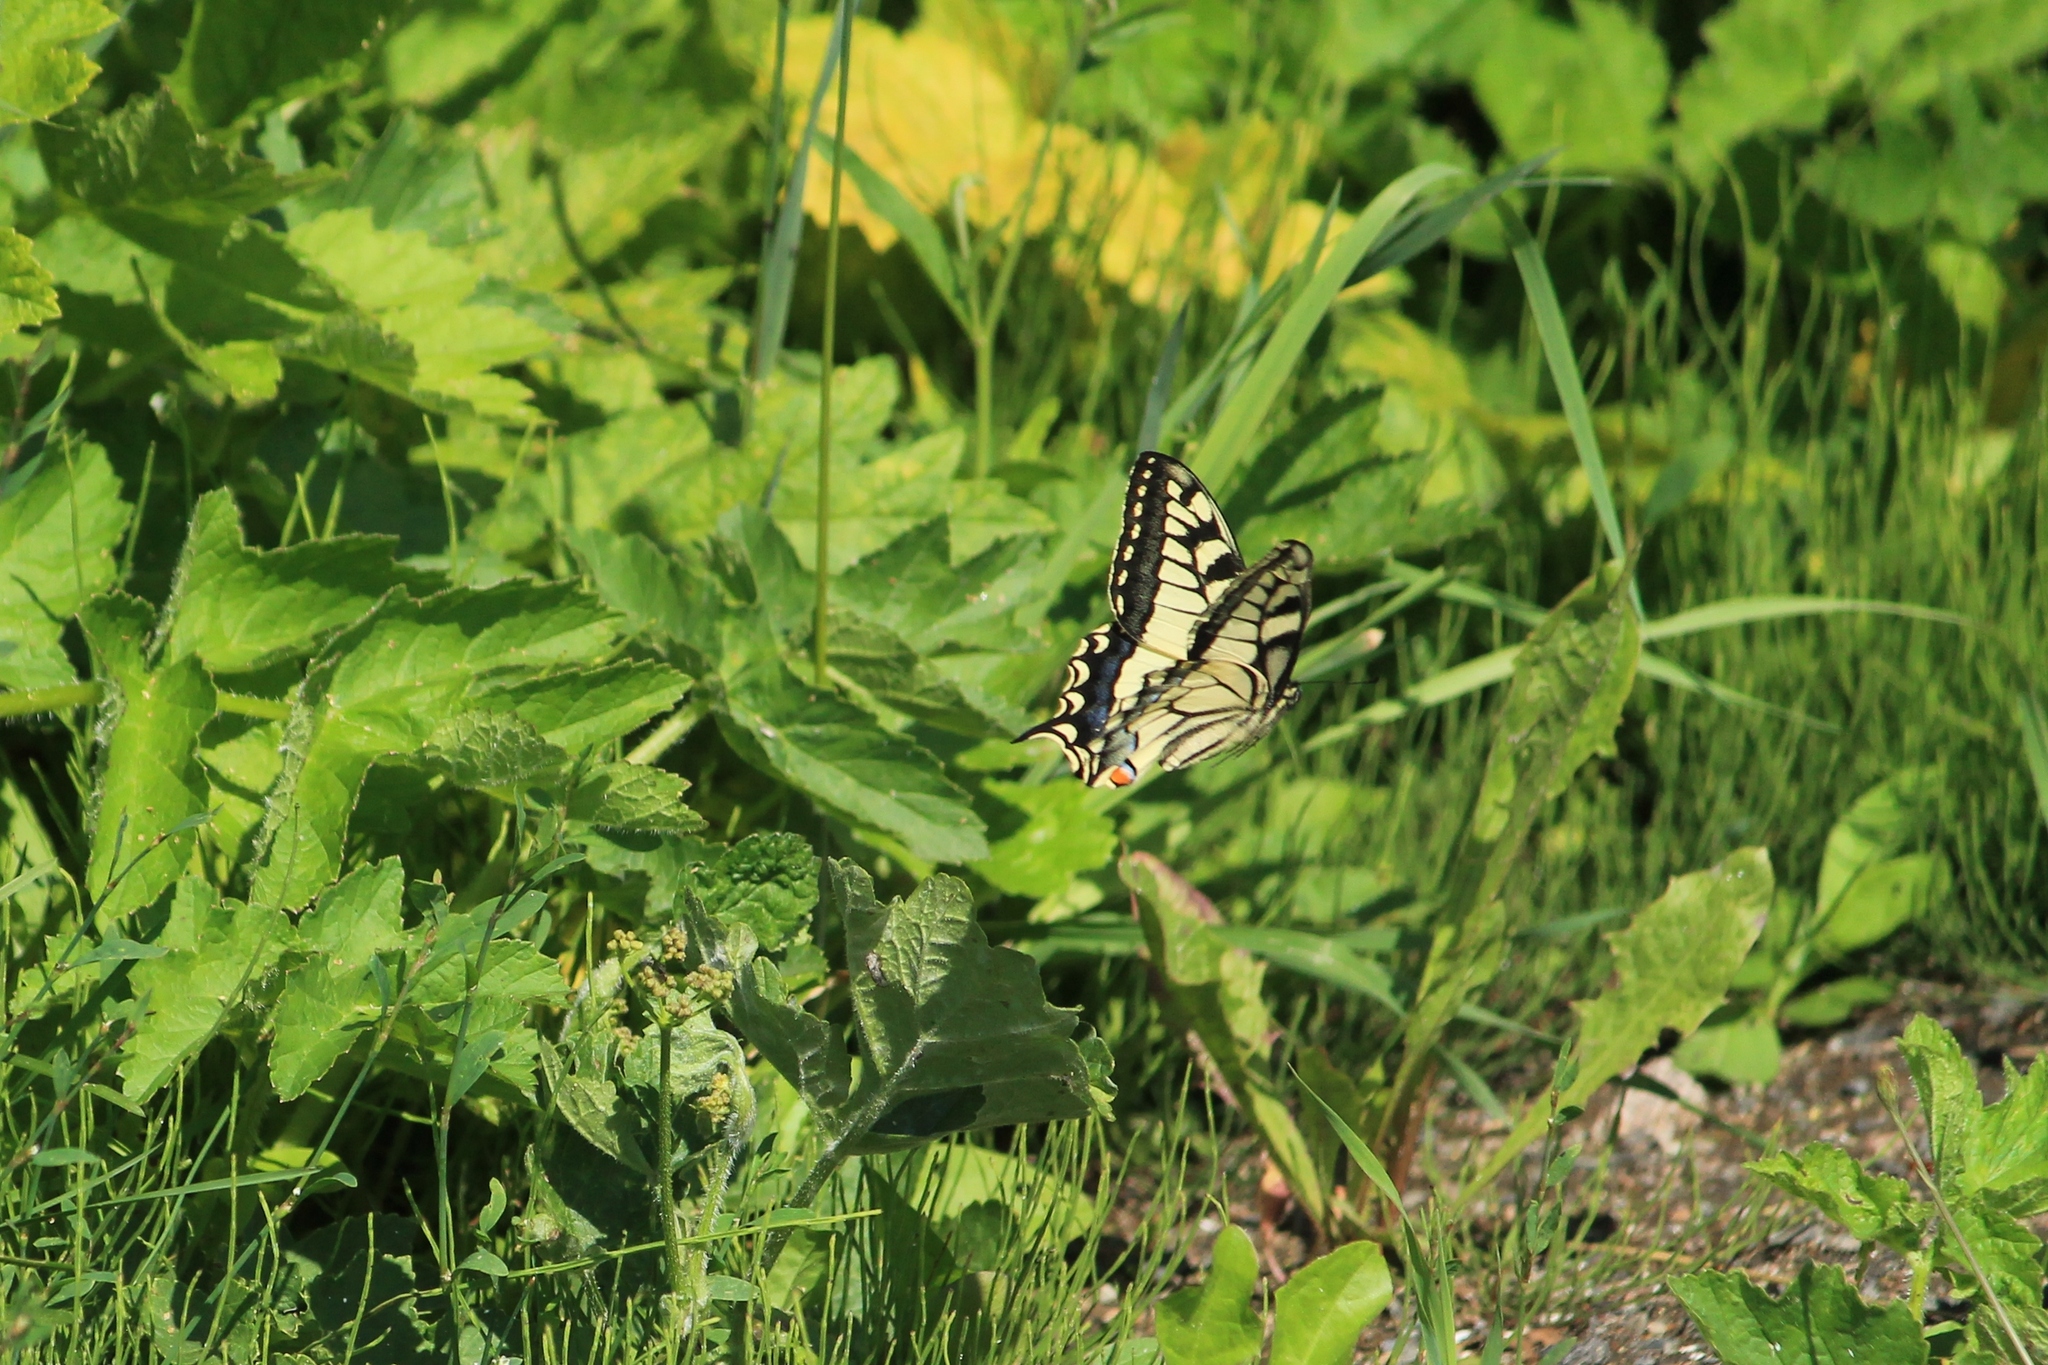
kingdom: Animalia
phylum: Arthropoda
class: Insecta
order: Lepidoptera
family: Papilionidae
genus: Papilio
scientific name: Papilio machaon
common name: Swallowtail
